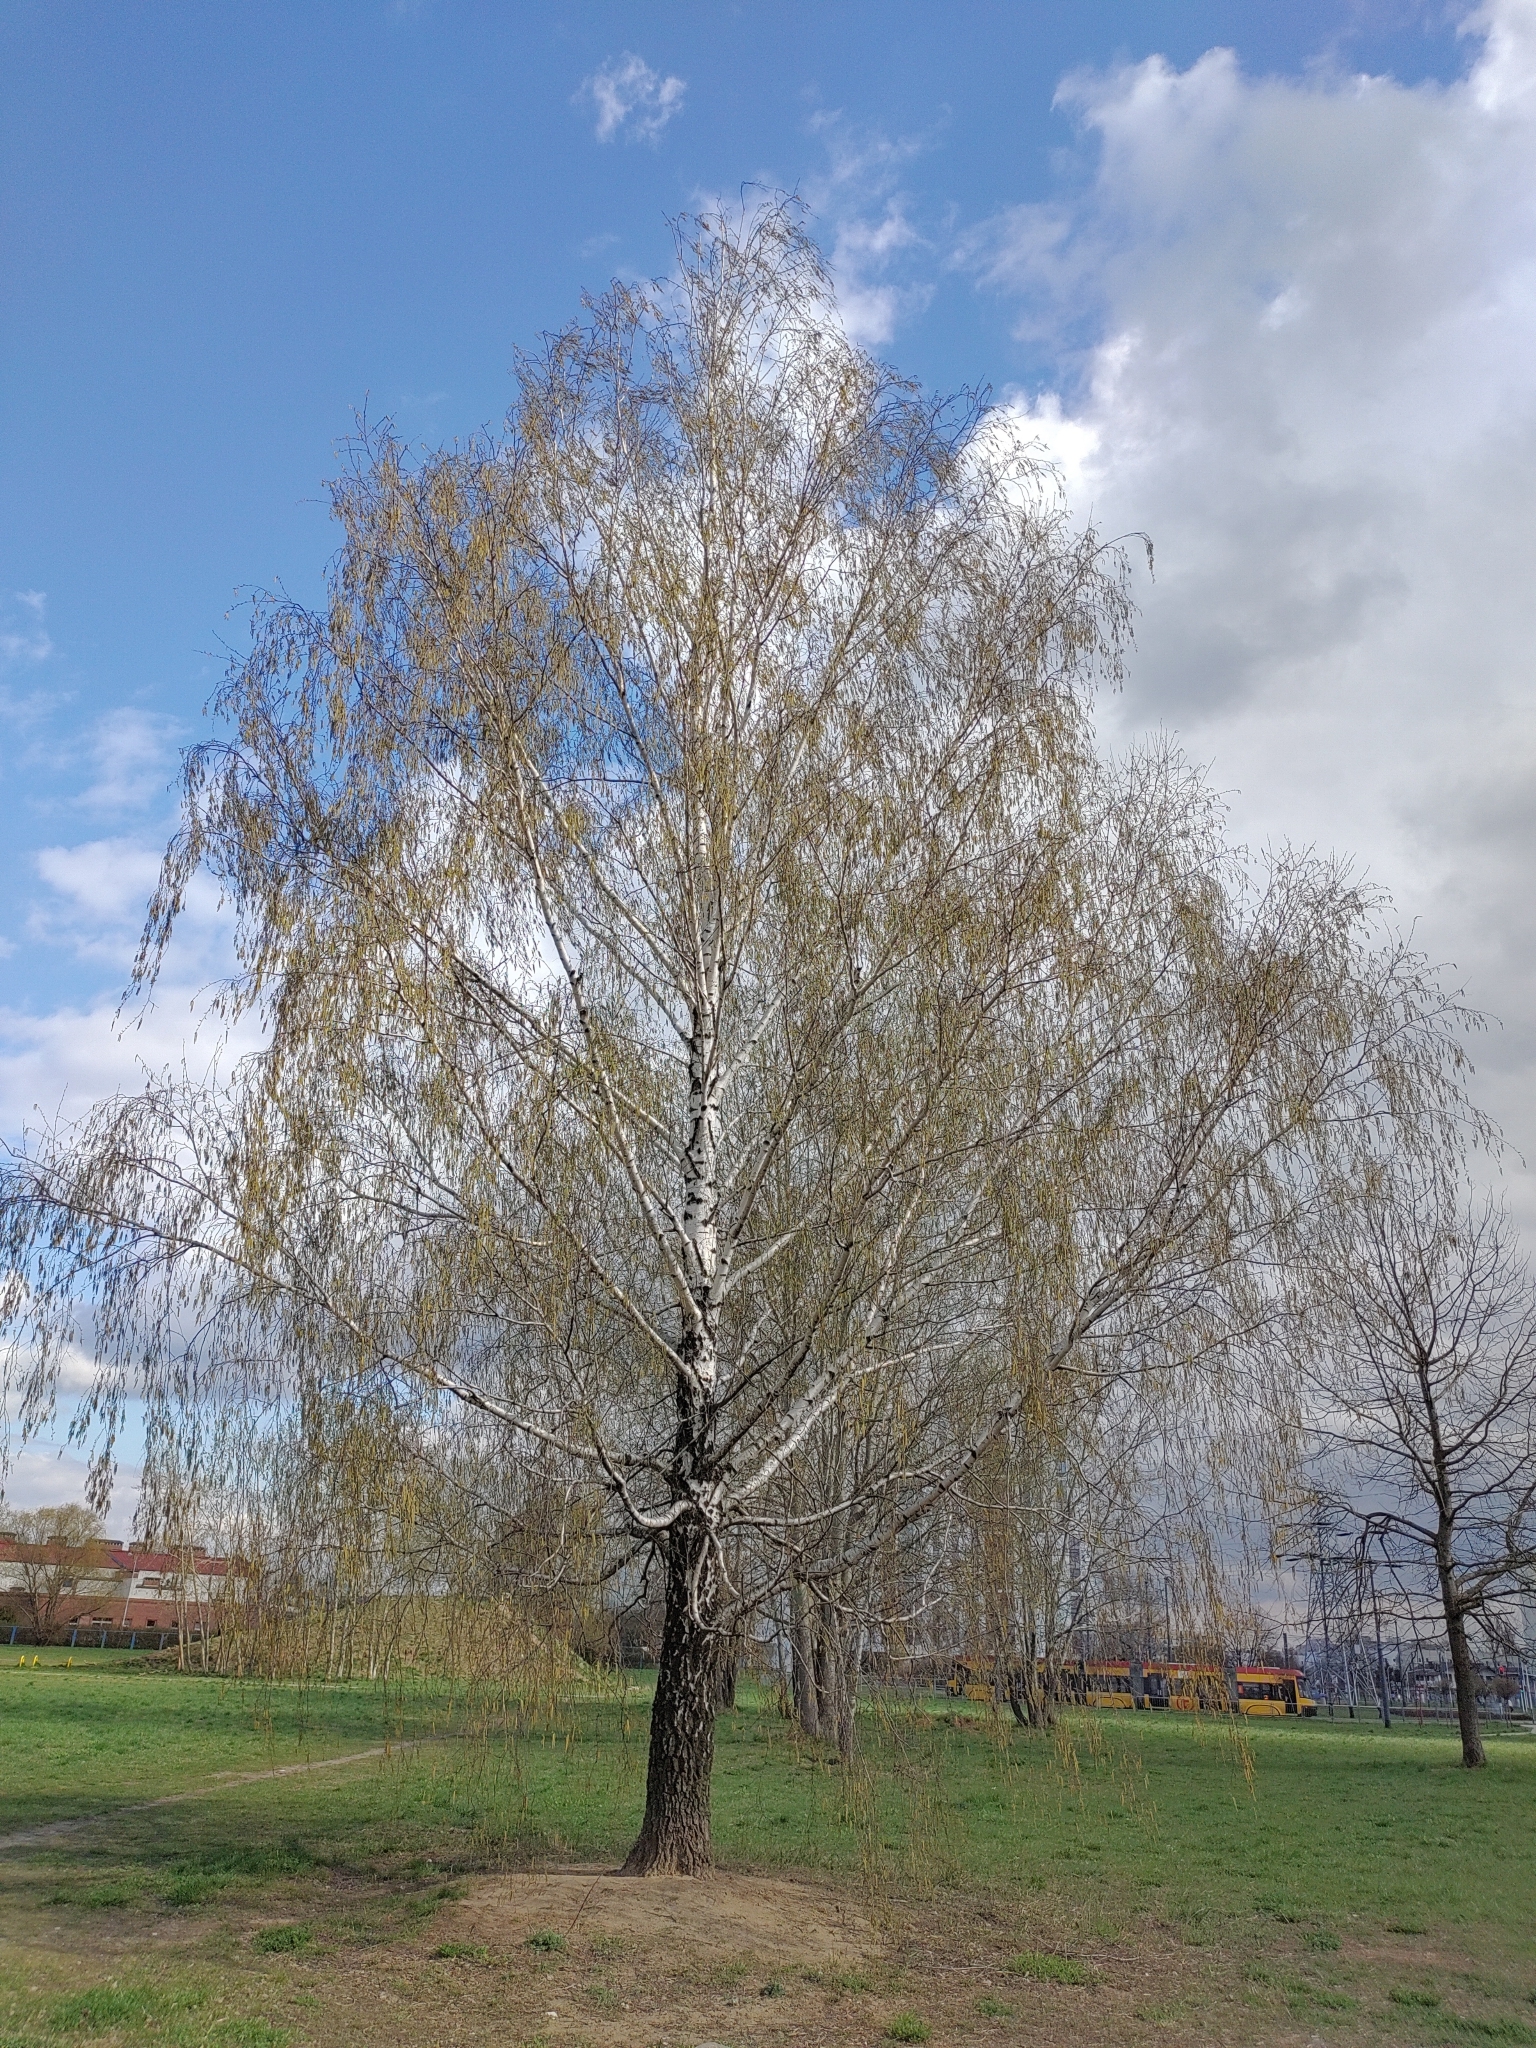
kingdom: Plantae
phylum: Tracheophyta
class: Magnoliopsida
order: Fagales
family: Betulaceae
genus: Betula
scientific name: Betula pendula
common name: Silver birch
